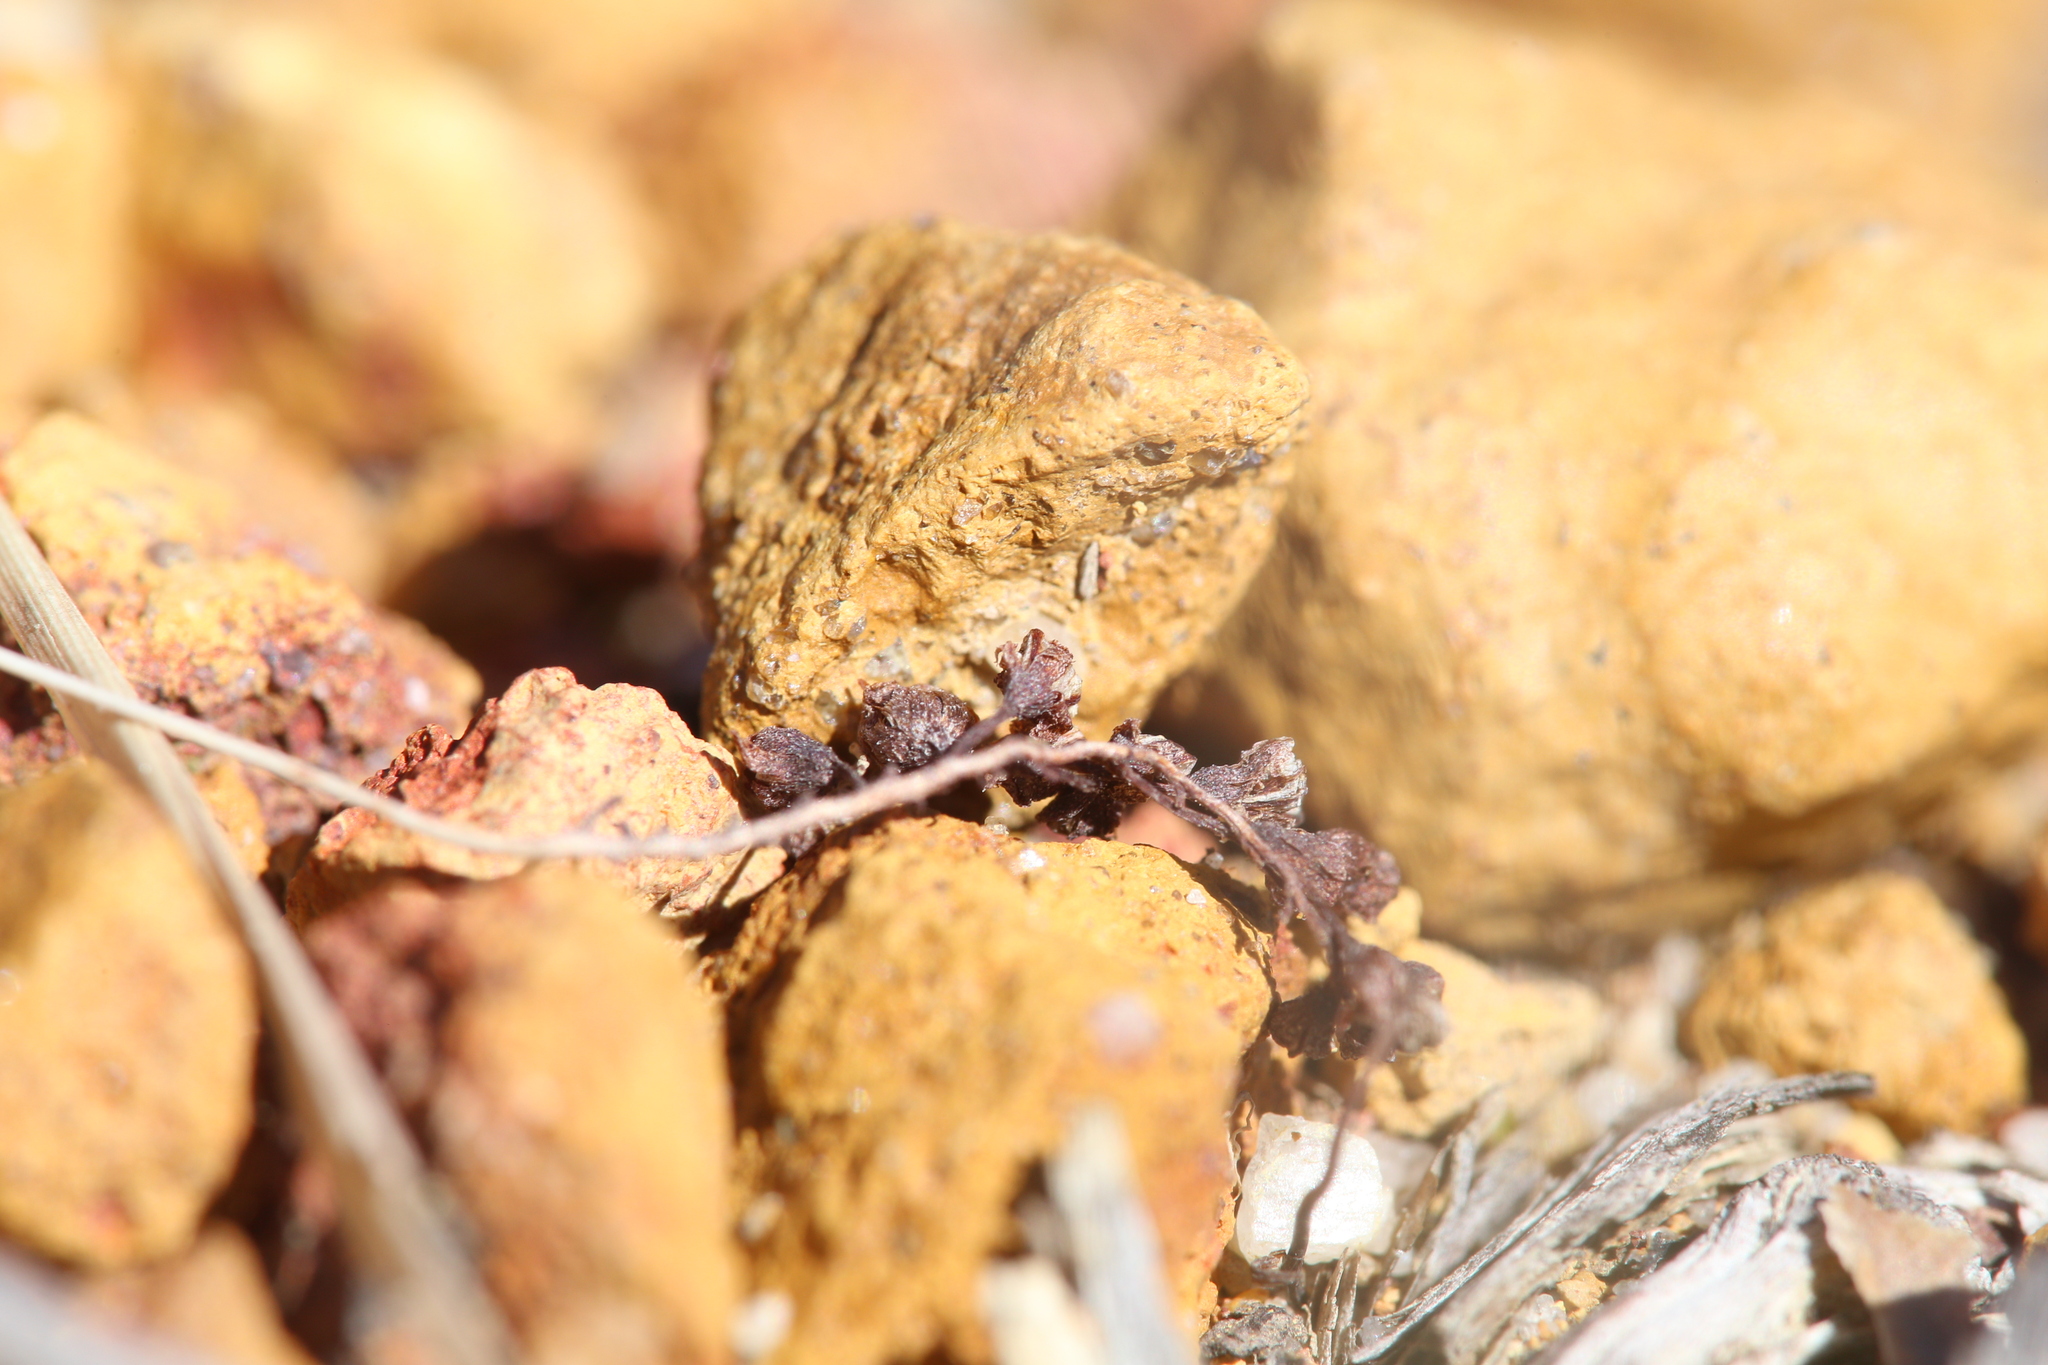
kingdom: Plantae
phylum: Tracheophyta
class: Magnoliopsida
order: Caryophyllales
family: Droseraceae
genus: Drosera
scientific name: Drosera eneabba
